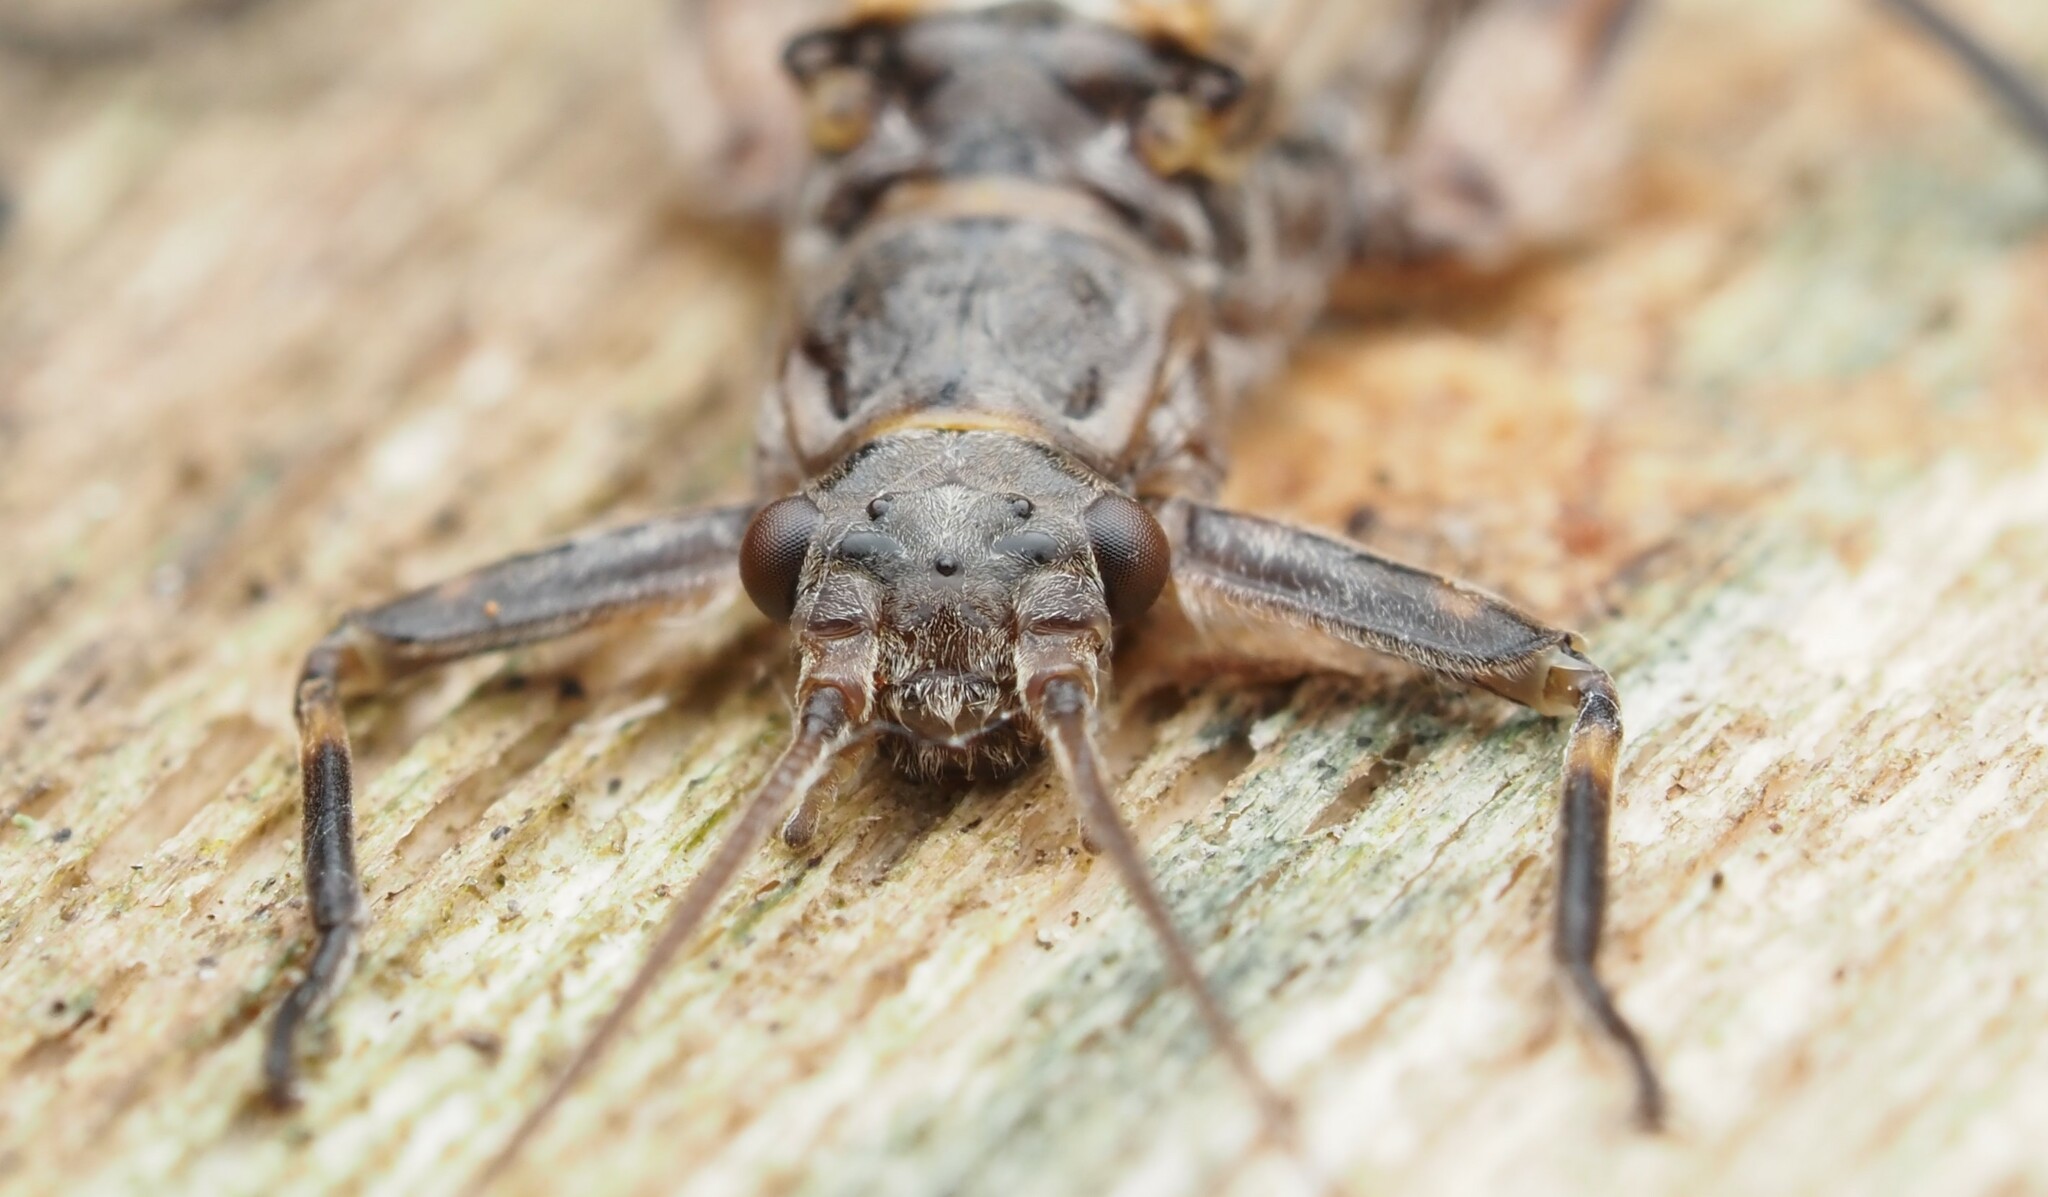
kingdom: Animalia
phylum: Arthropoda
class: Insecta
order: Plecoptera
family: Gripopterygidae
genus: Zelandoperla
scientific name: Zelandoperla agnetis
